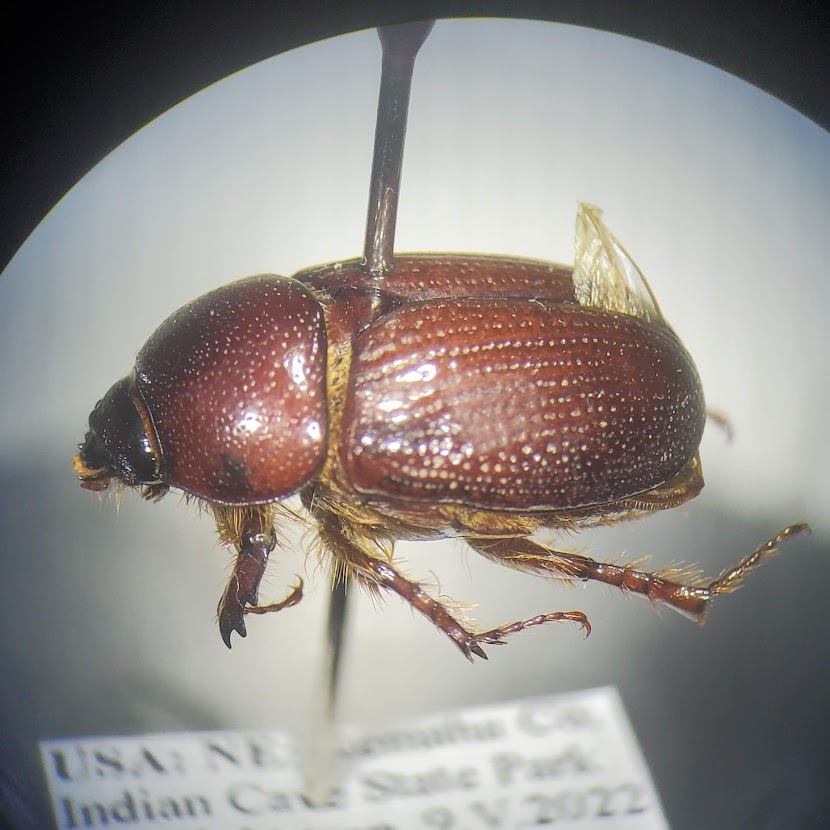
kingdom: Animalia
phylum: Arthropoda
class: Insecta
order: Coleoptera
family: Scarabaeidae
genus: Ligyrus
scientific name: Ligyrus gibbosus
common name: Carrot beetle
